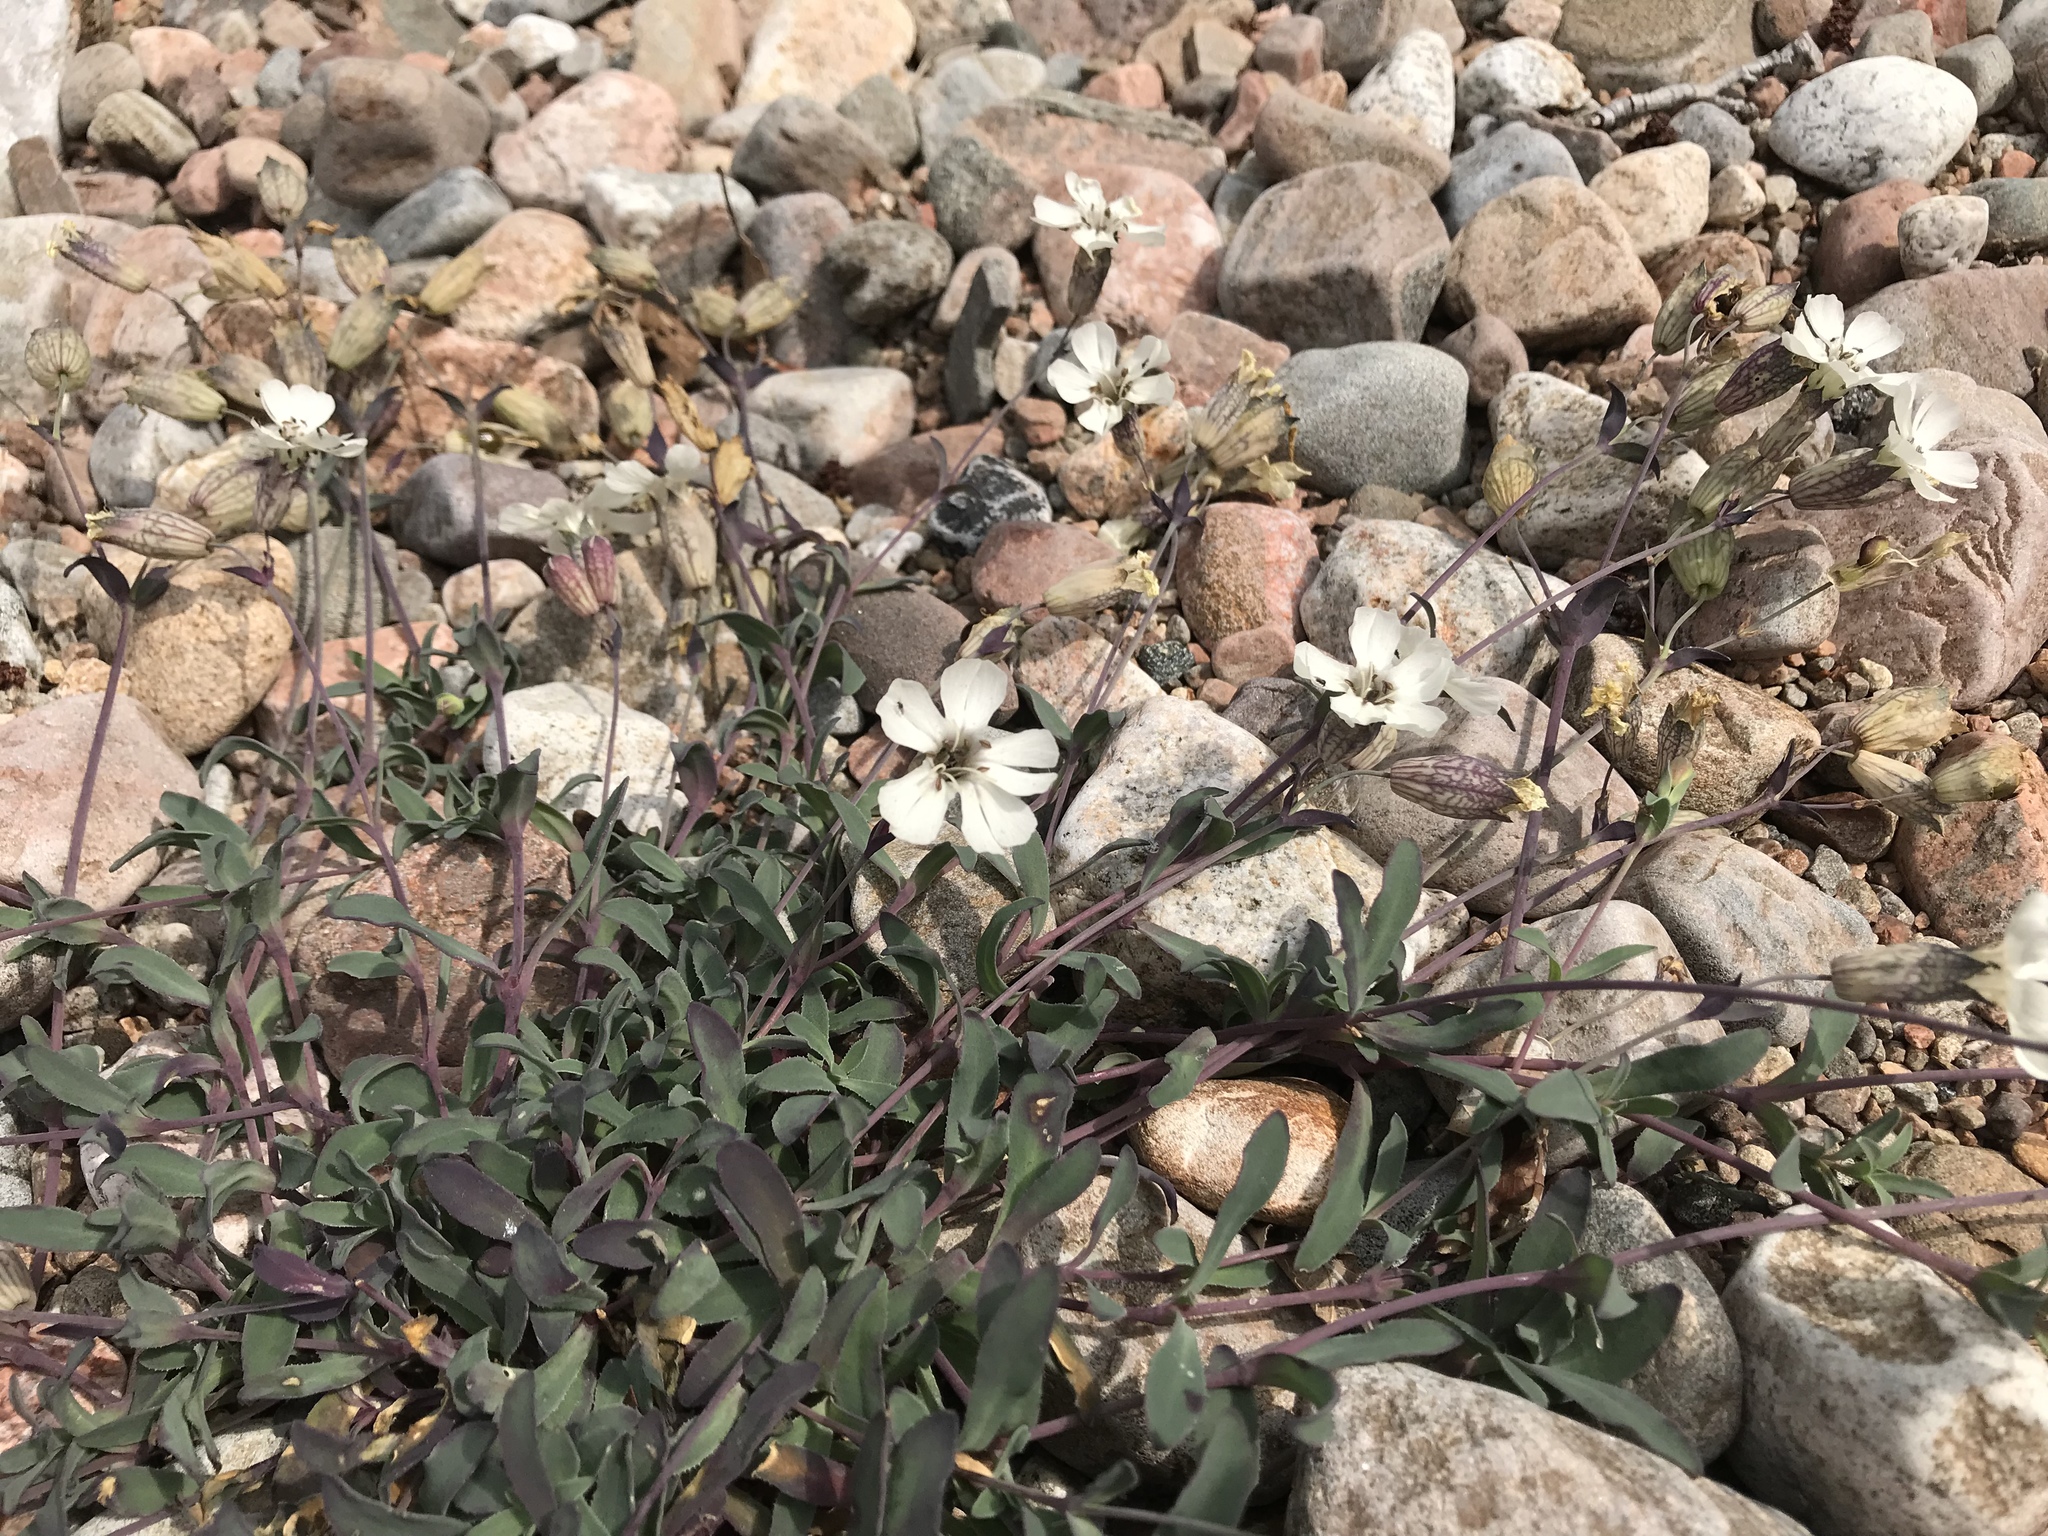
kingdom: Plantae
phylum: Tracheophyta
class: Magnoliopsida
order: Caryophyllales
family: Caryophyllaceae
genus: Silene
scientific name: Silene uniflora
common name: Sea campion
